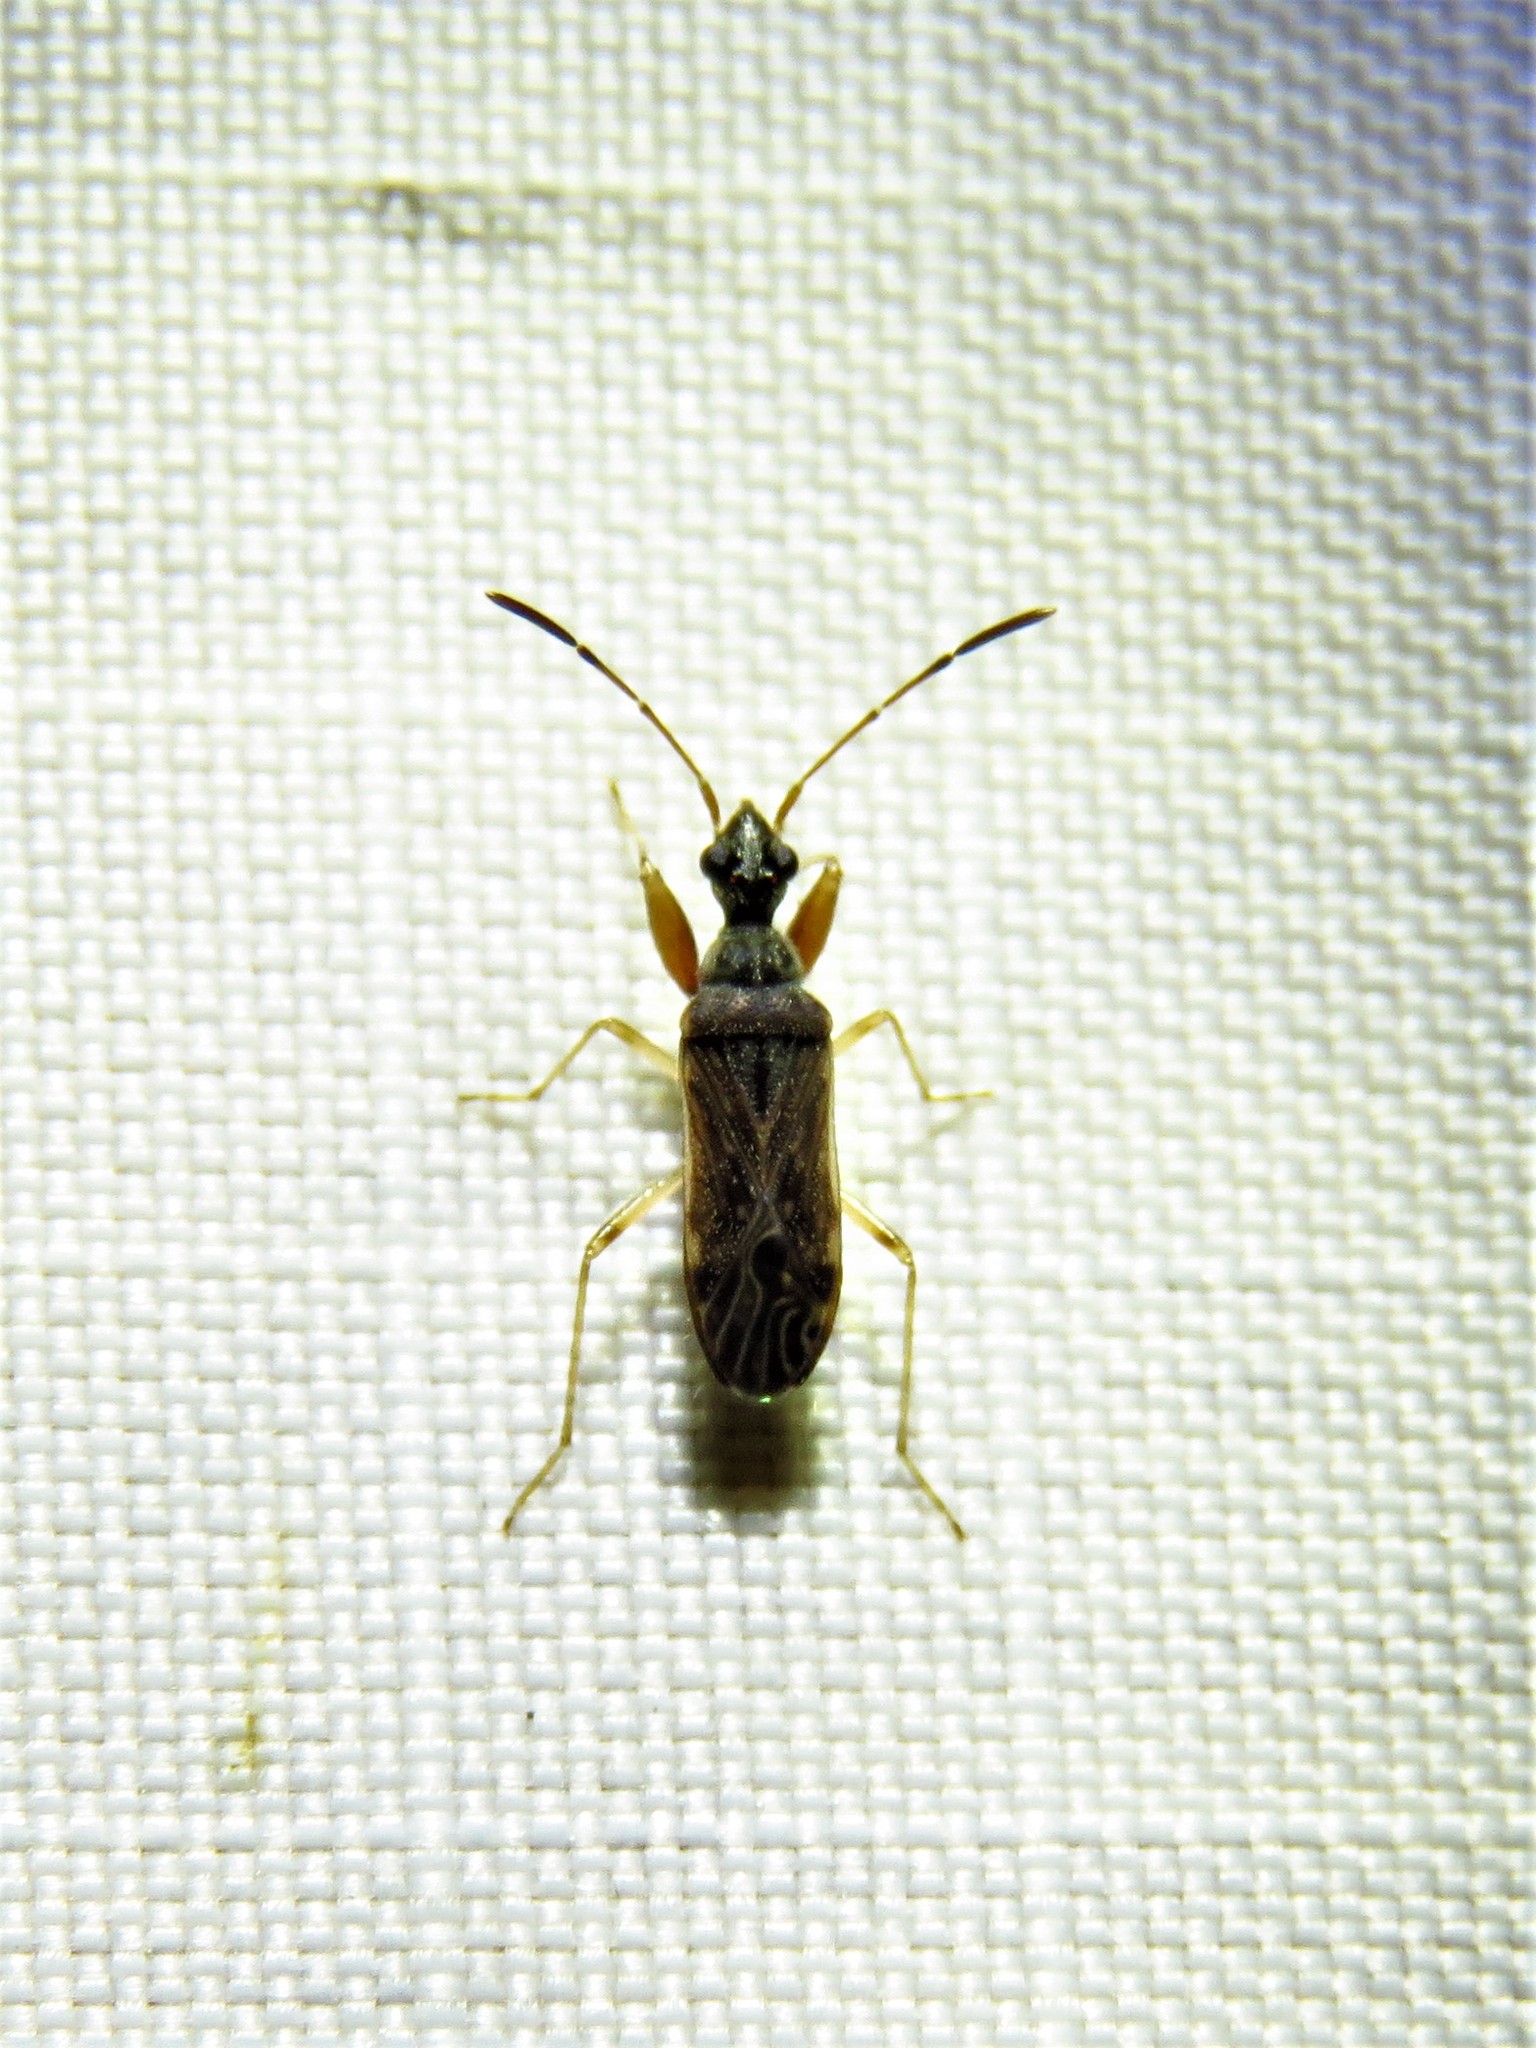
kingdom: Animalia
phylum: Arthropoda
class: Insecta
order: Hemiptera
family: Rhyparochromidae
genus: Heraeus
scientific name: Heraeus plebejus
